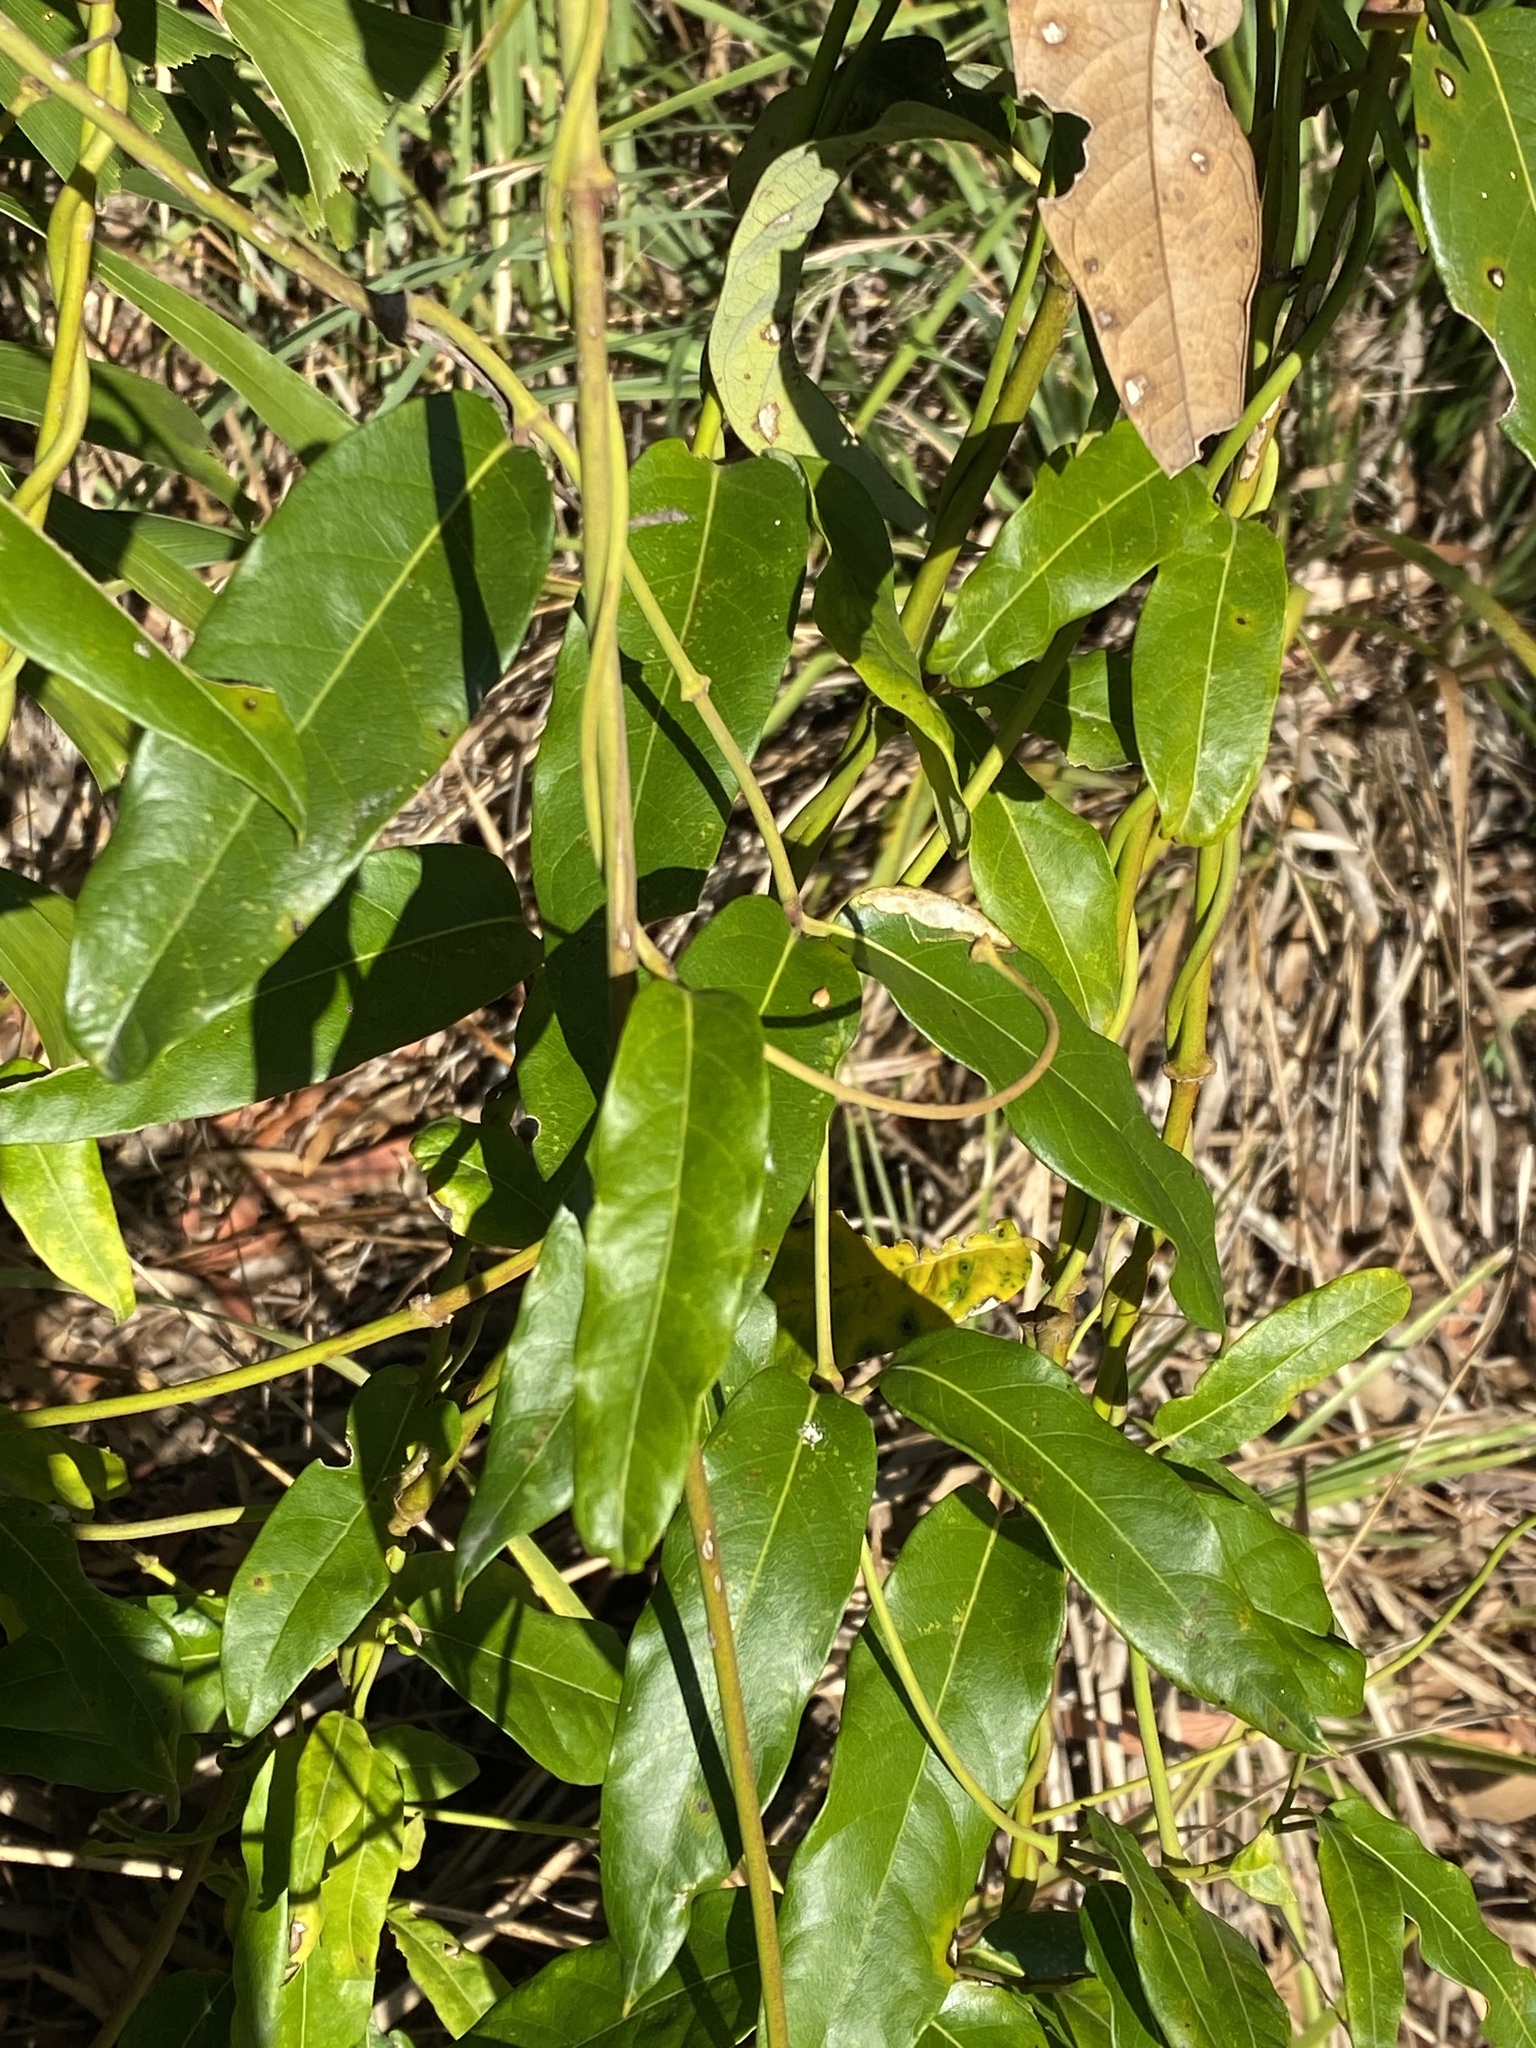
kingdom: Plantae
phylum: Tracheophyta
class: Magnoliopsida
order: Gentianales
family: Apocynaceae
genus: Parsonsia
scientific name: Parsonsia straminea
